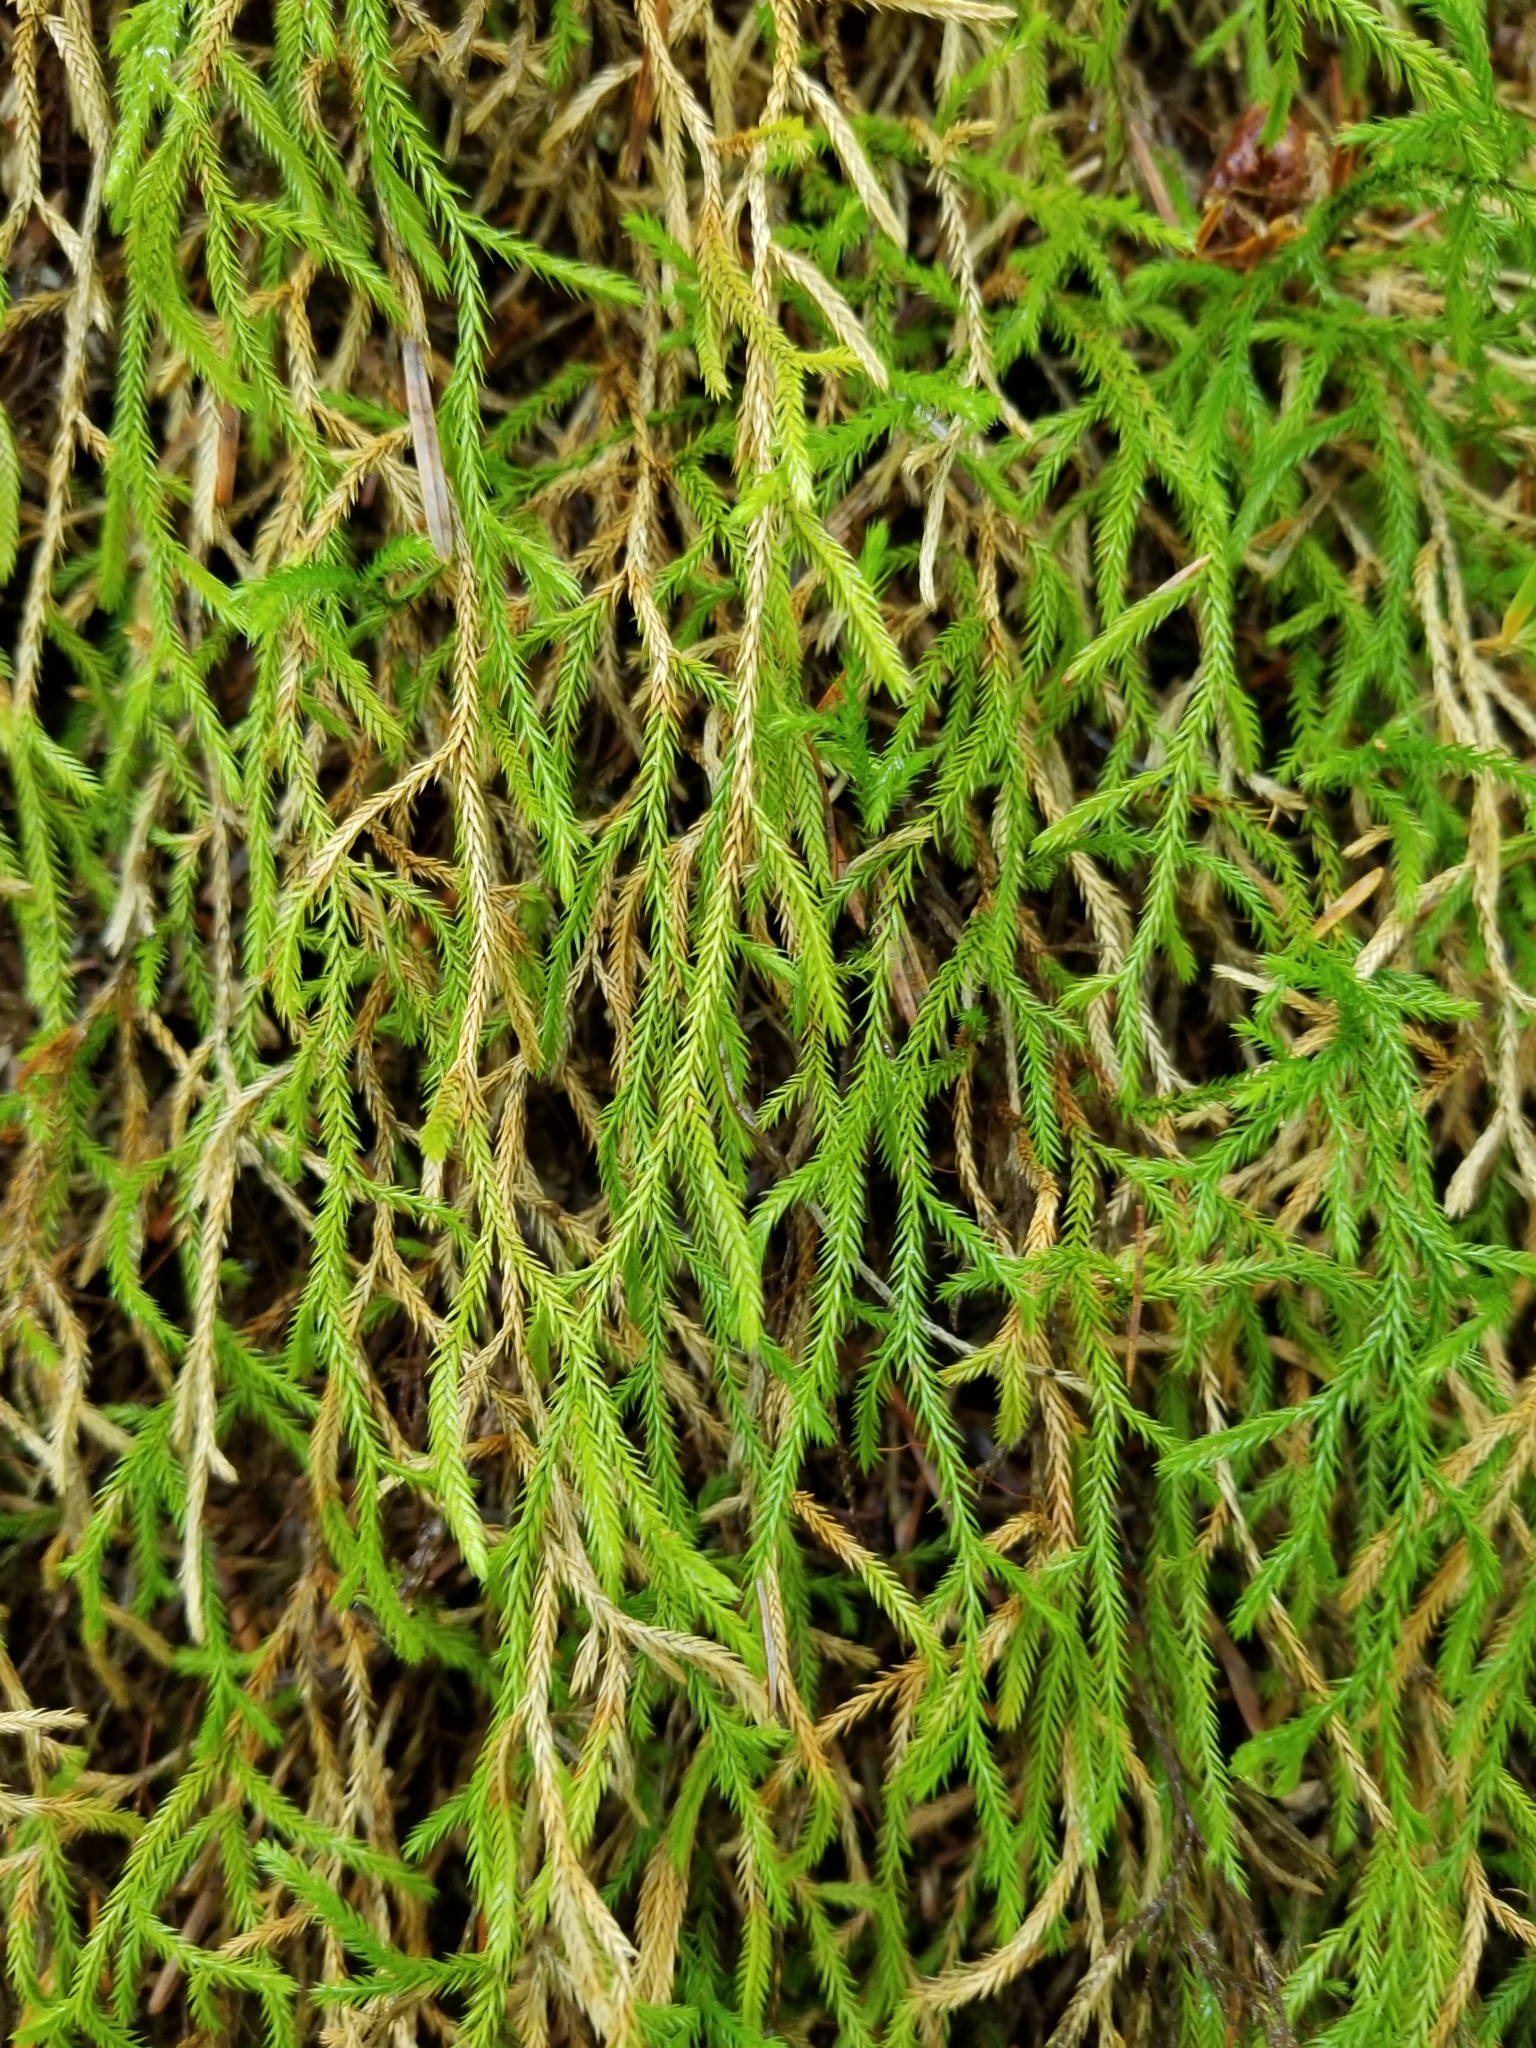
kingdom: Plantae
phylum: Tracheophyta
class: Lycopodiopsida
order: Selaginellales
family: Selaginellaceae
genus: Selaginella
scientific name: Selaginella oregana
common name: Oregon selaginella
